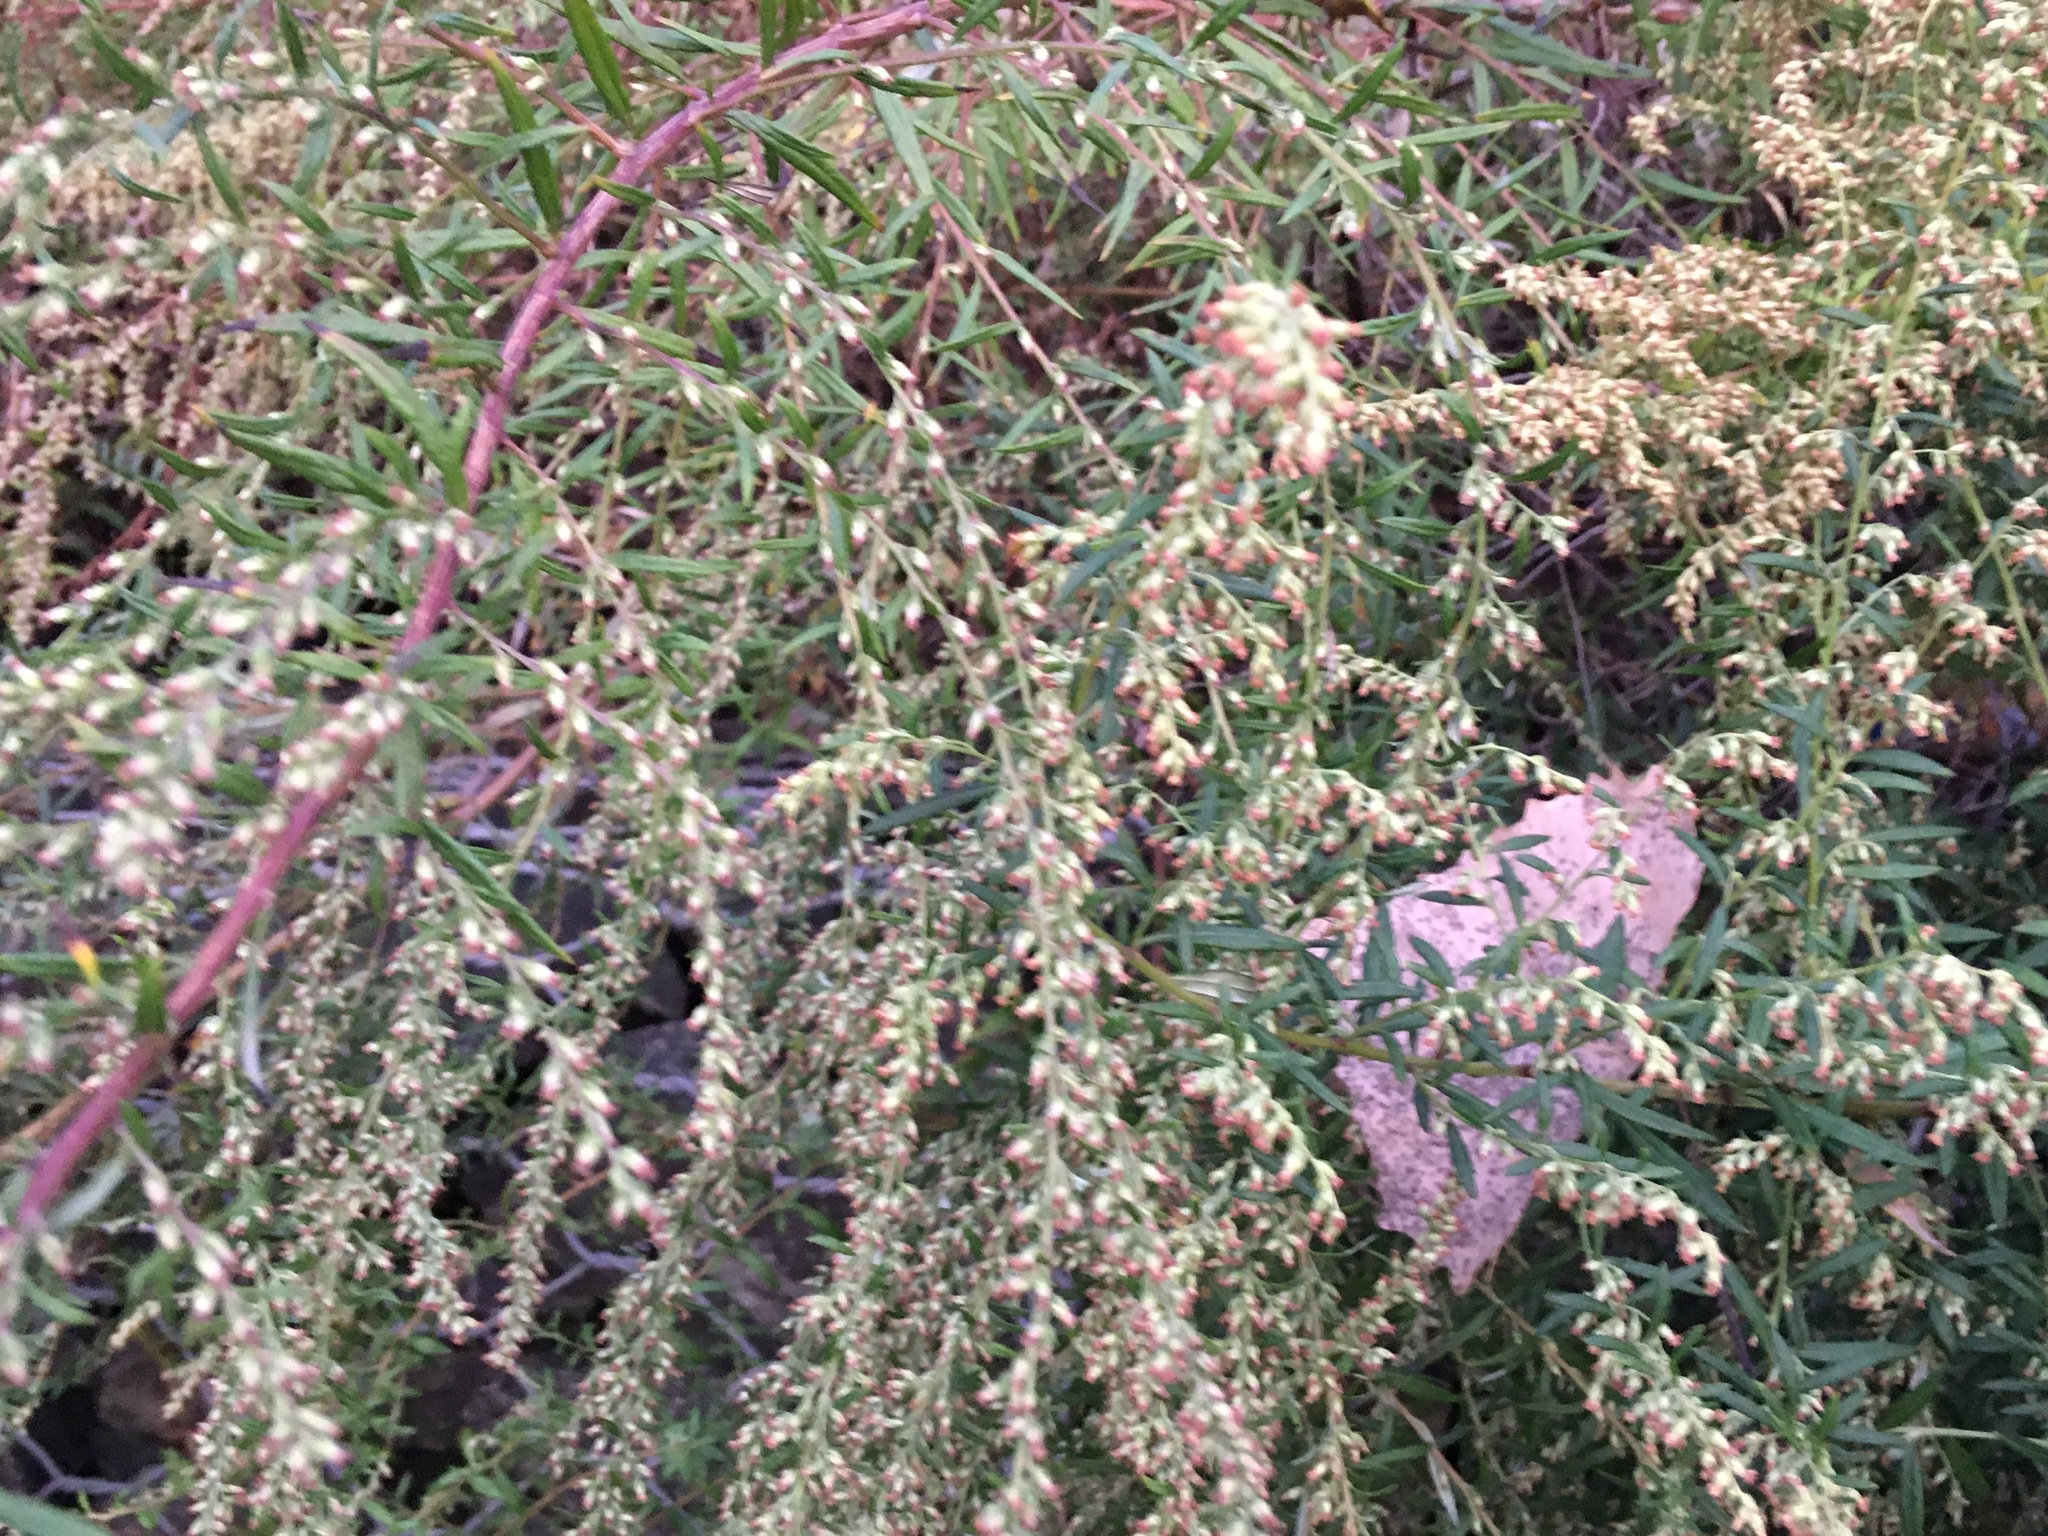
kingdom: Plantae
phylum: Tracheophyta
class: Magnoliopsida
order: Asterales
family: Asteraceae
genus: Artemisia
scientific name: Artemisia vulgaris
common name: Mugwort
